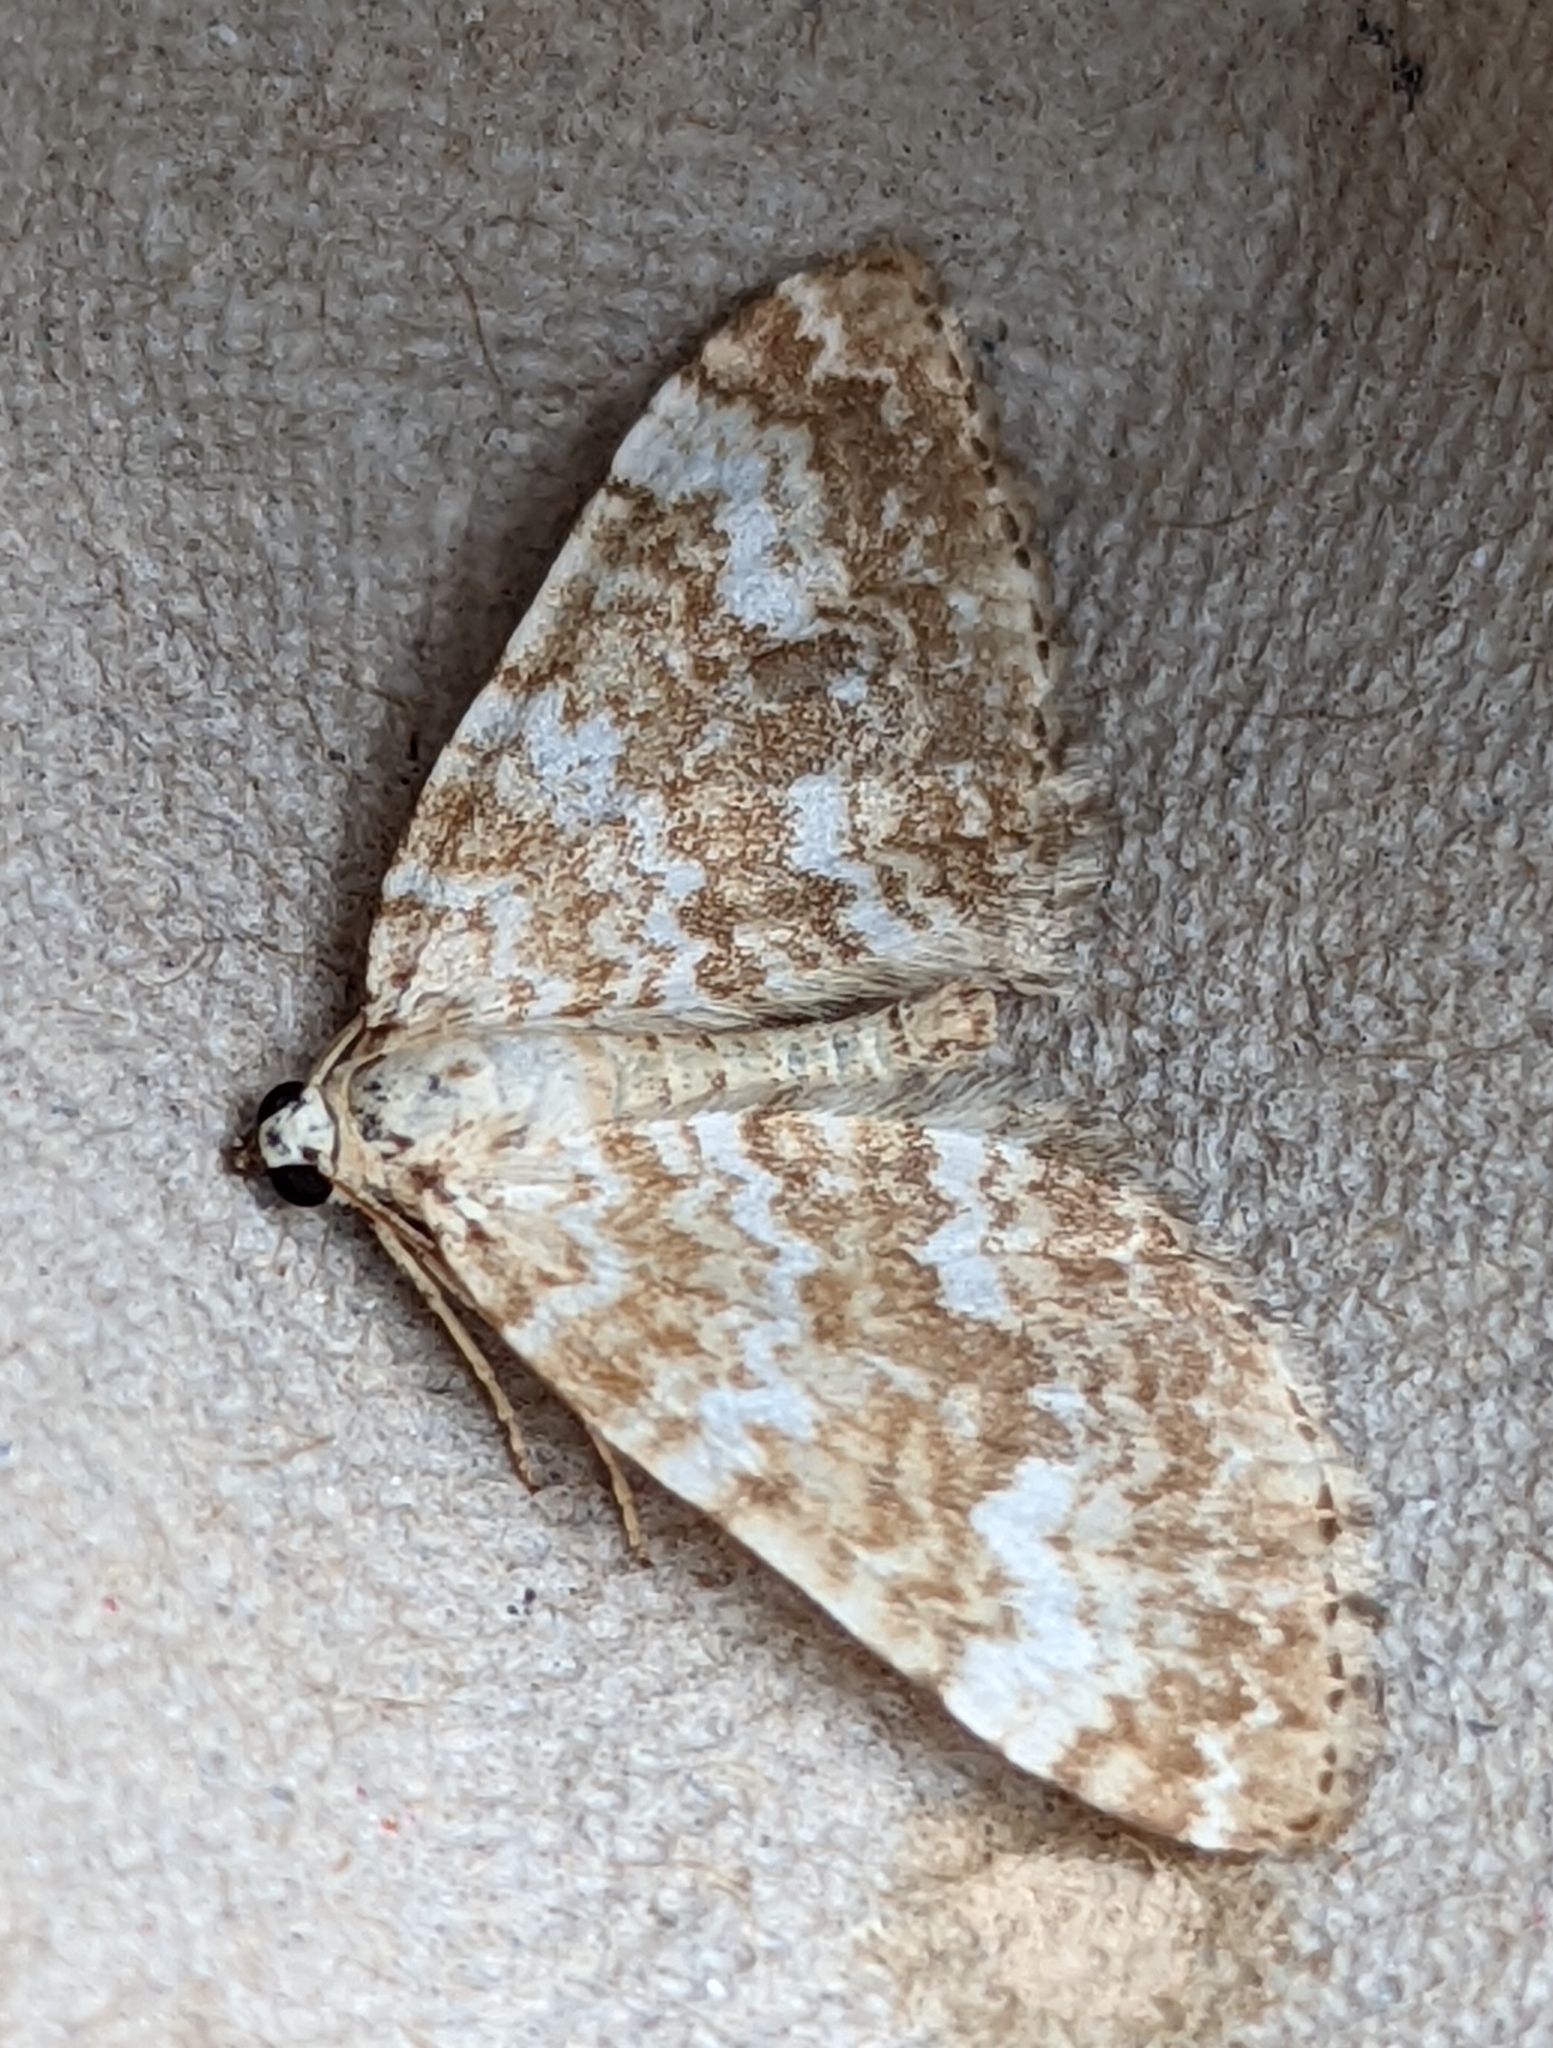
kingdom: Animalia
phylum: Arthropoda
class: Insecta
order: Lepidoptera
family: Geometridae
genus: Perizoma
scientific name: Perizoma flavofasciata
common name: Sandy carpet
